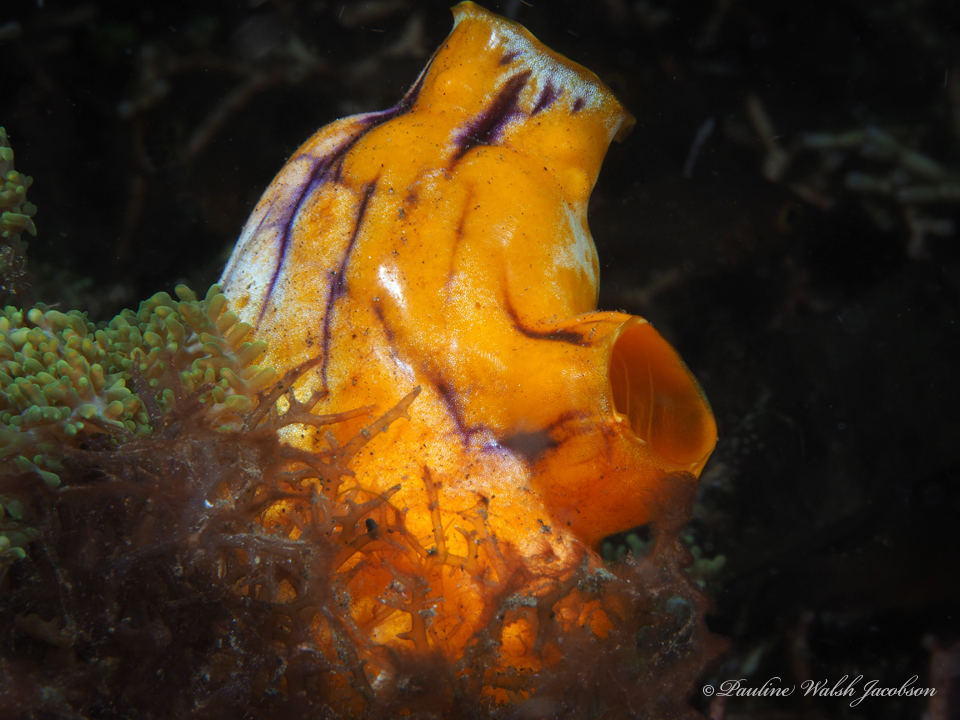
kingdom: Animalia
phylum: Chordata
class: Ascidiacea
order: Stolidobranchia
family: Styelidae
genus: Polycarpa
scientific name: Polycarpa aurata
